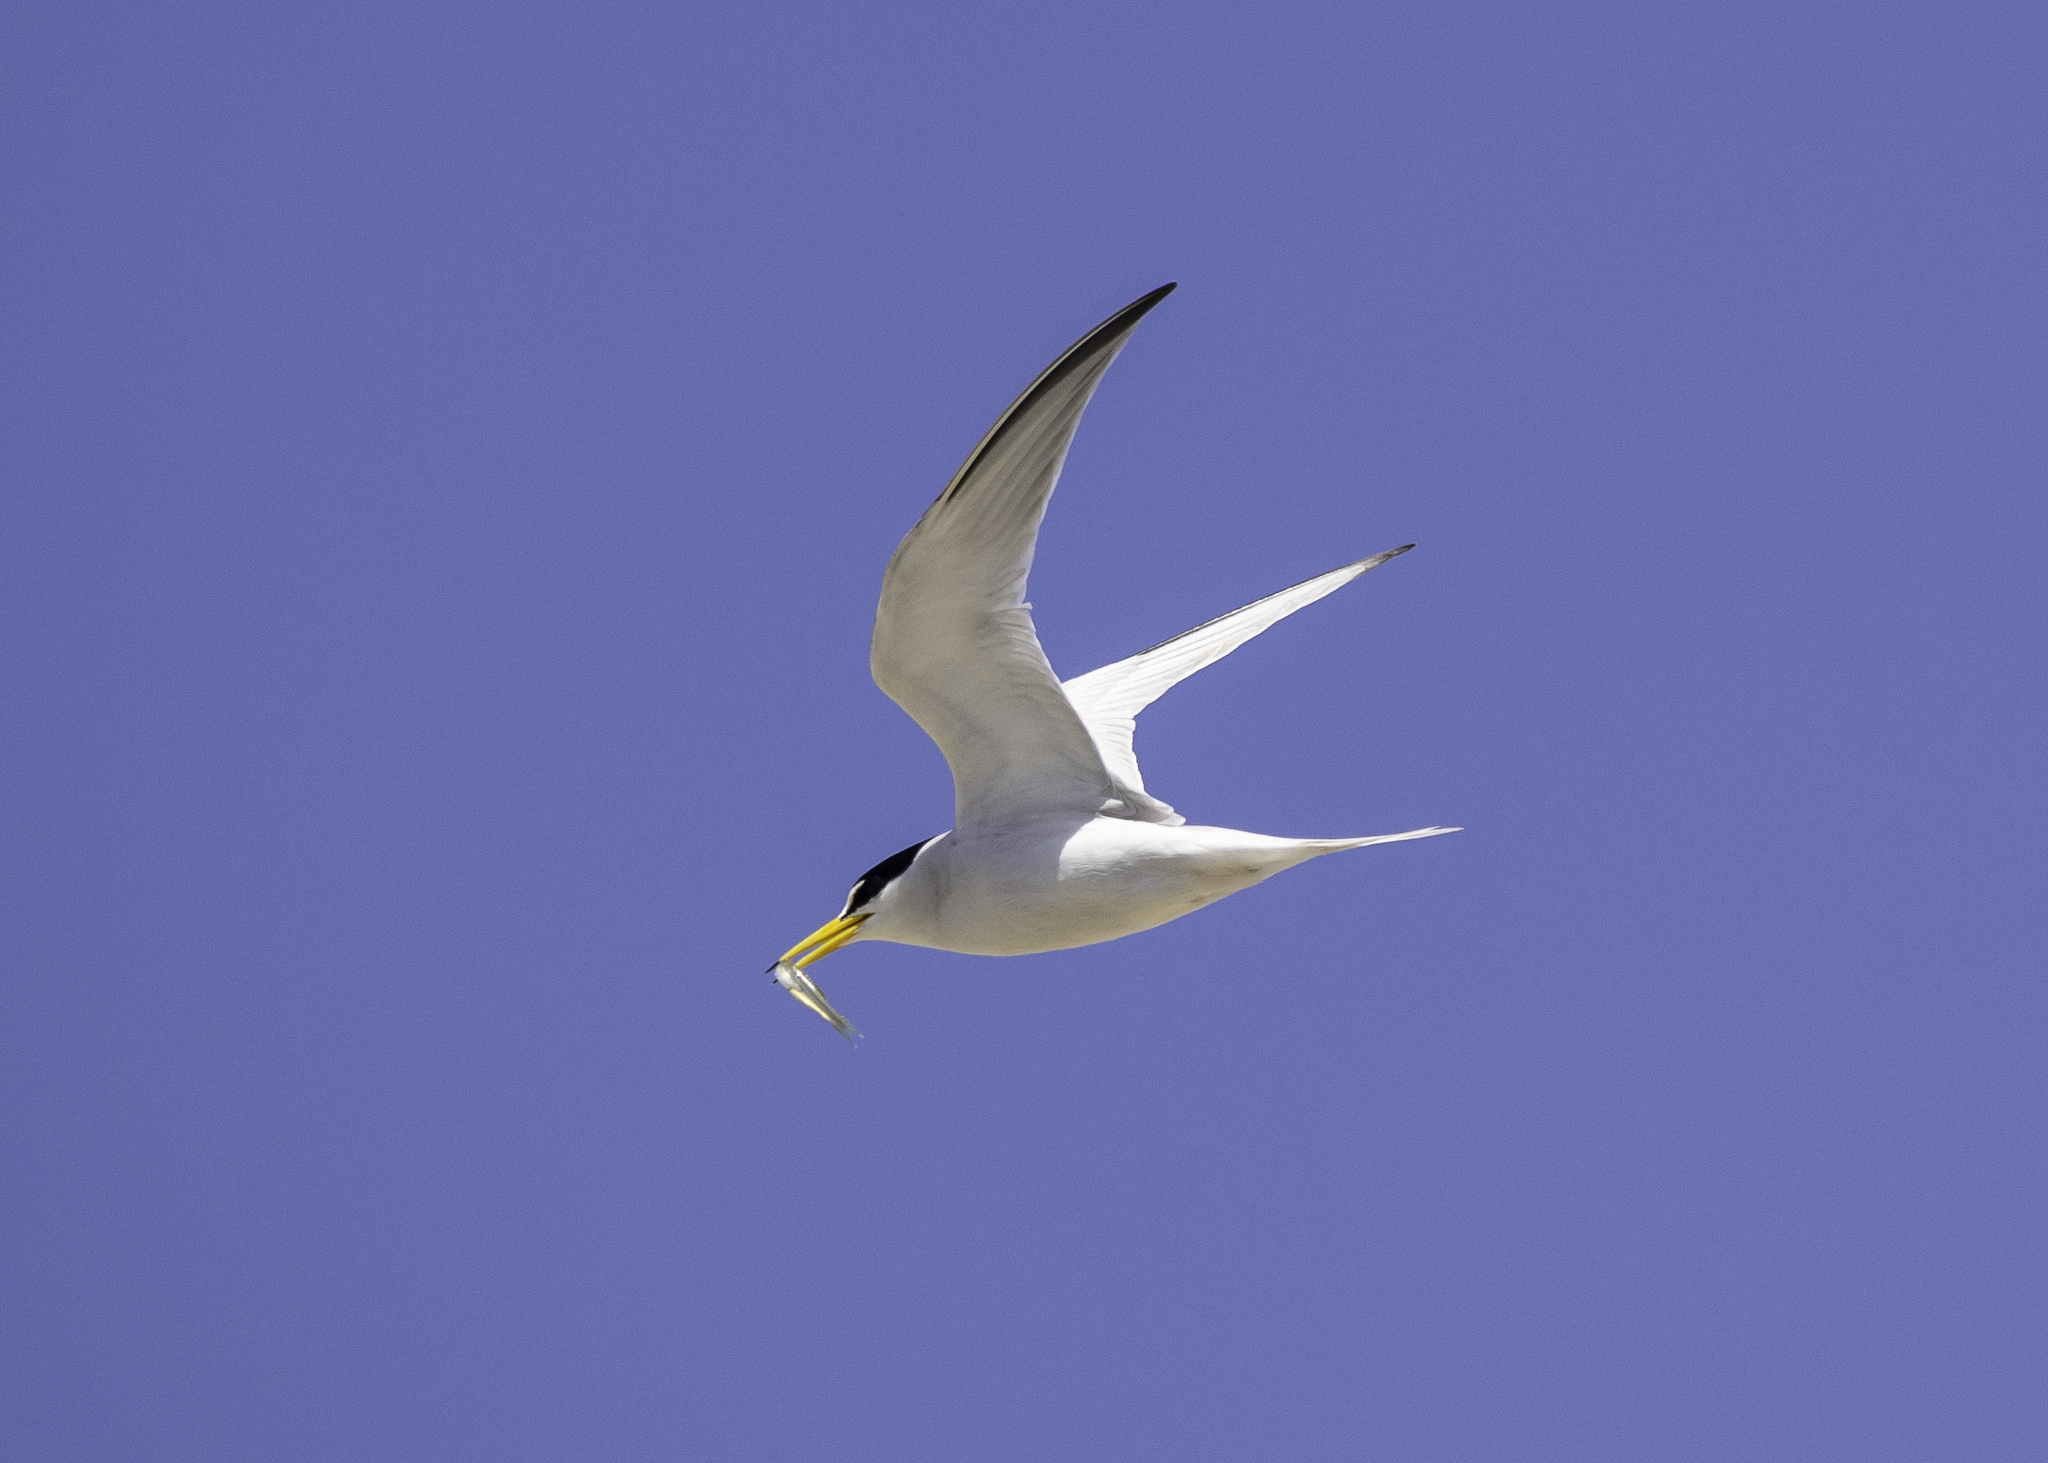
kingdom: Animalia
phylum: Chordata
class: Aves
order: Charadriiformes
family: Laridae
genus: Sternula
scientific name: Sternula antillarum
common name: Least tern
